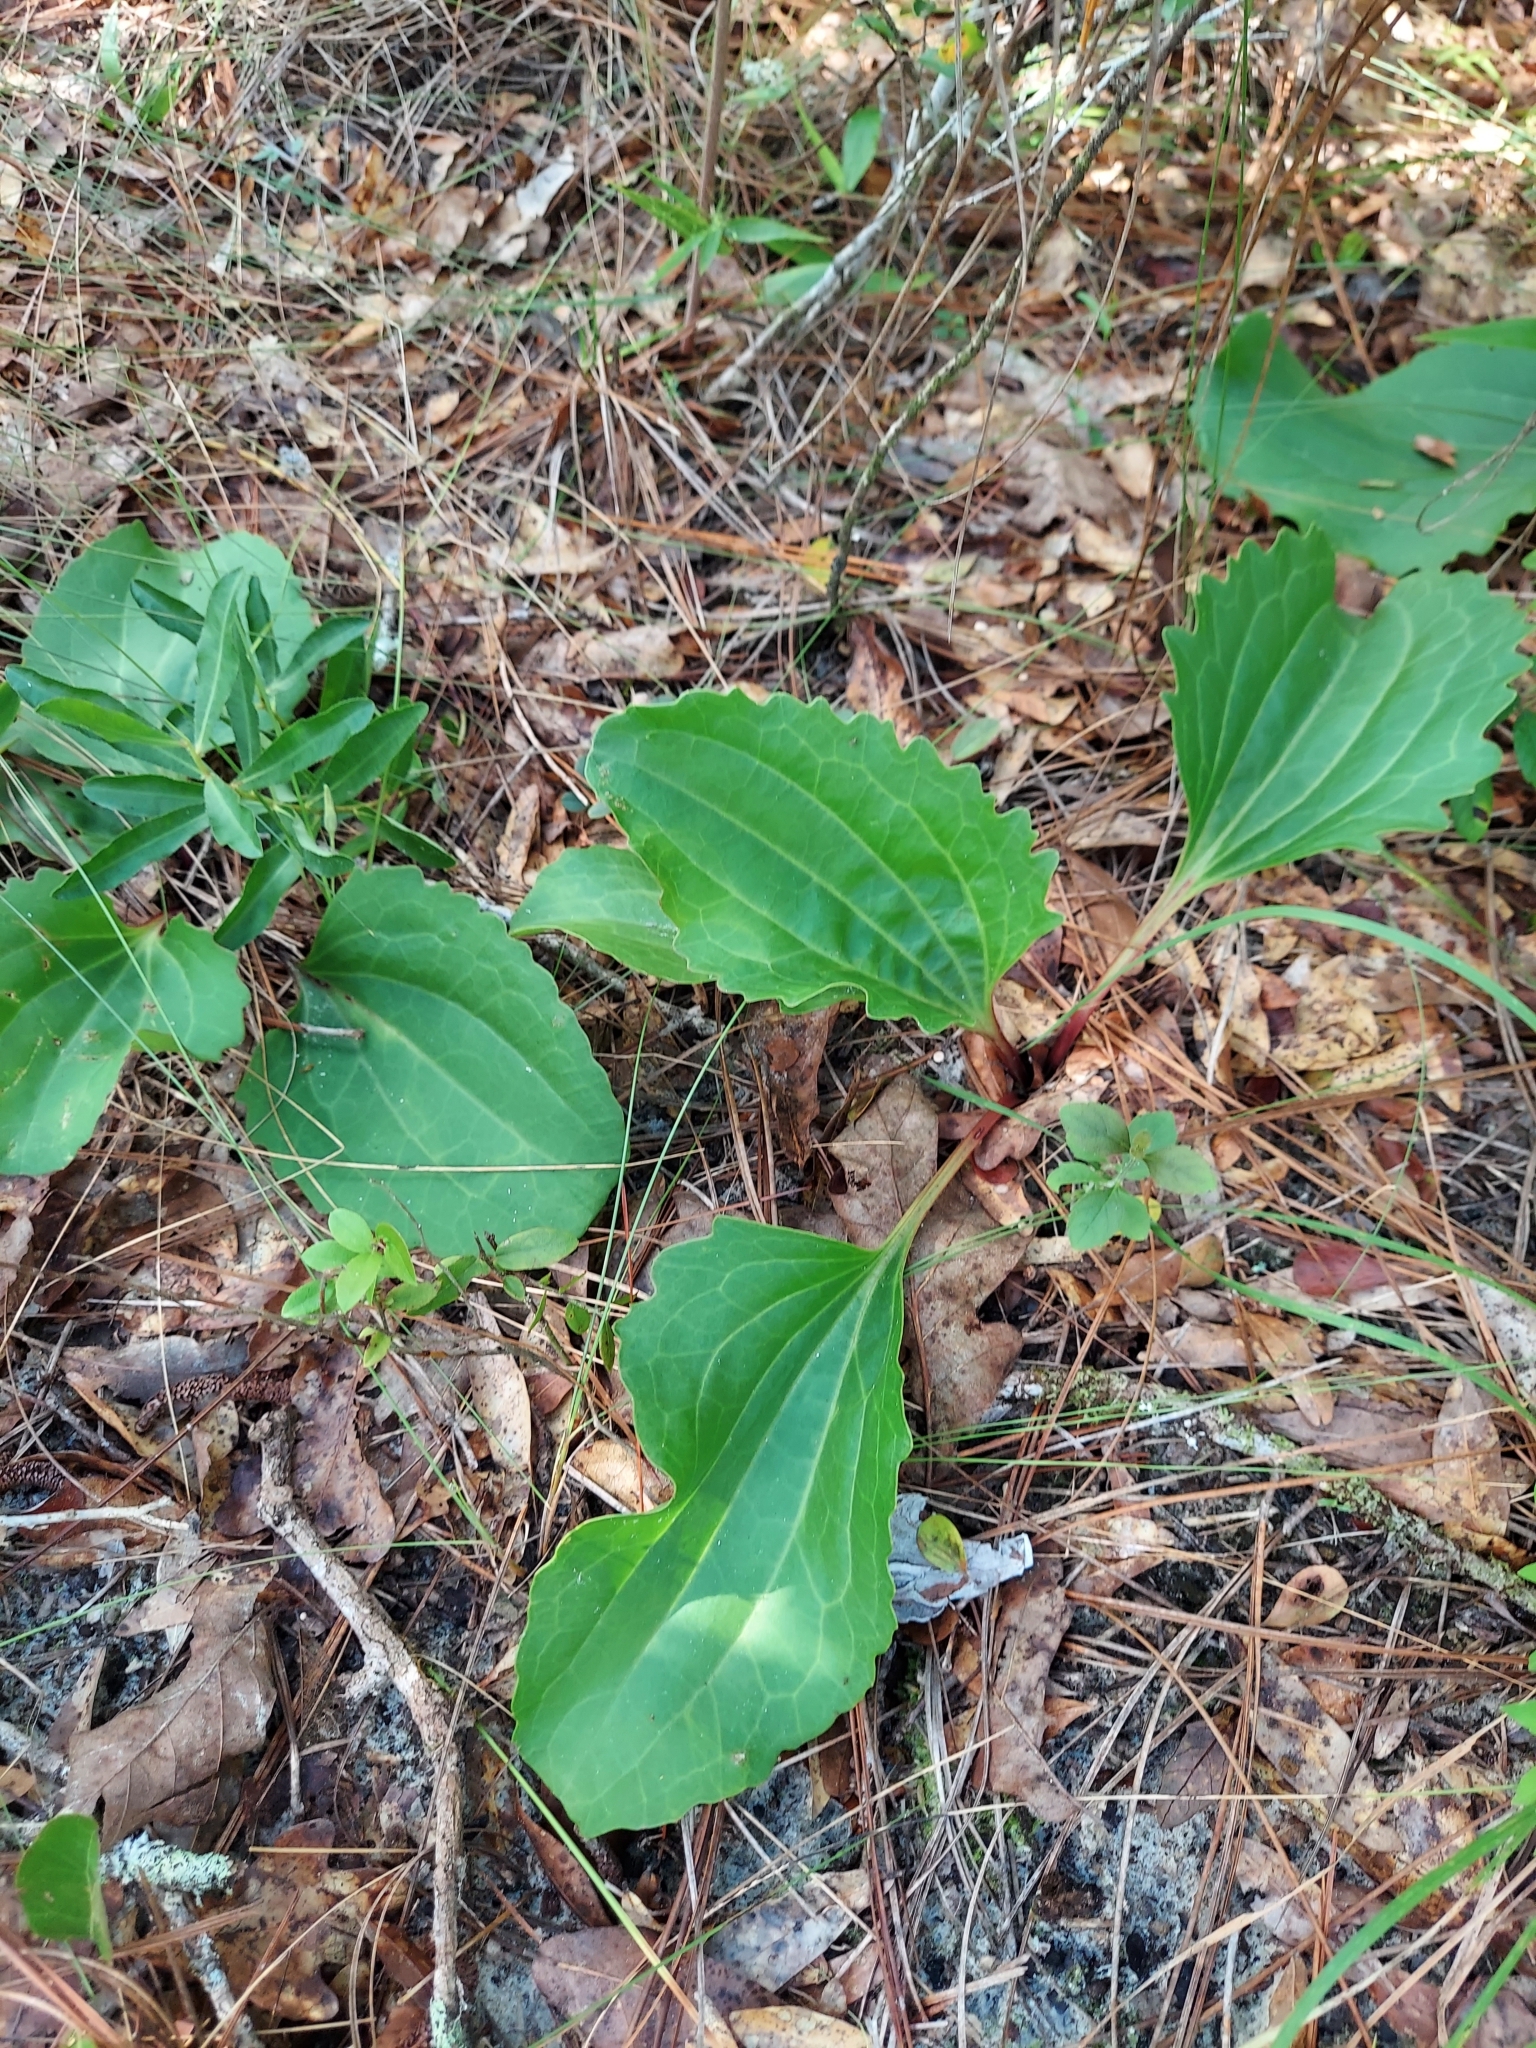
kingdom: Plantae
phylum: Tracheophyta
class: Magnoliopsida
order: Asterales
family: Asteraceae
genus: Arnoglossum
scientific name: Arnoglossum floridanum
